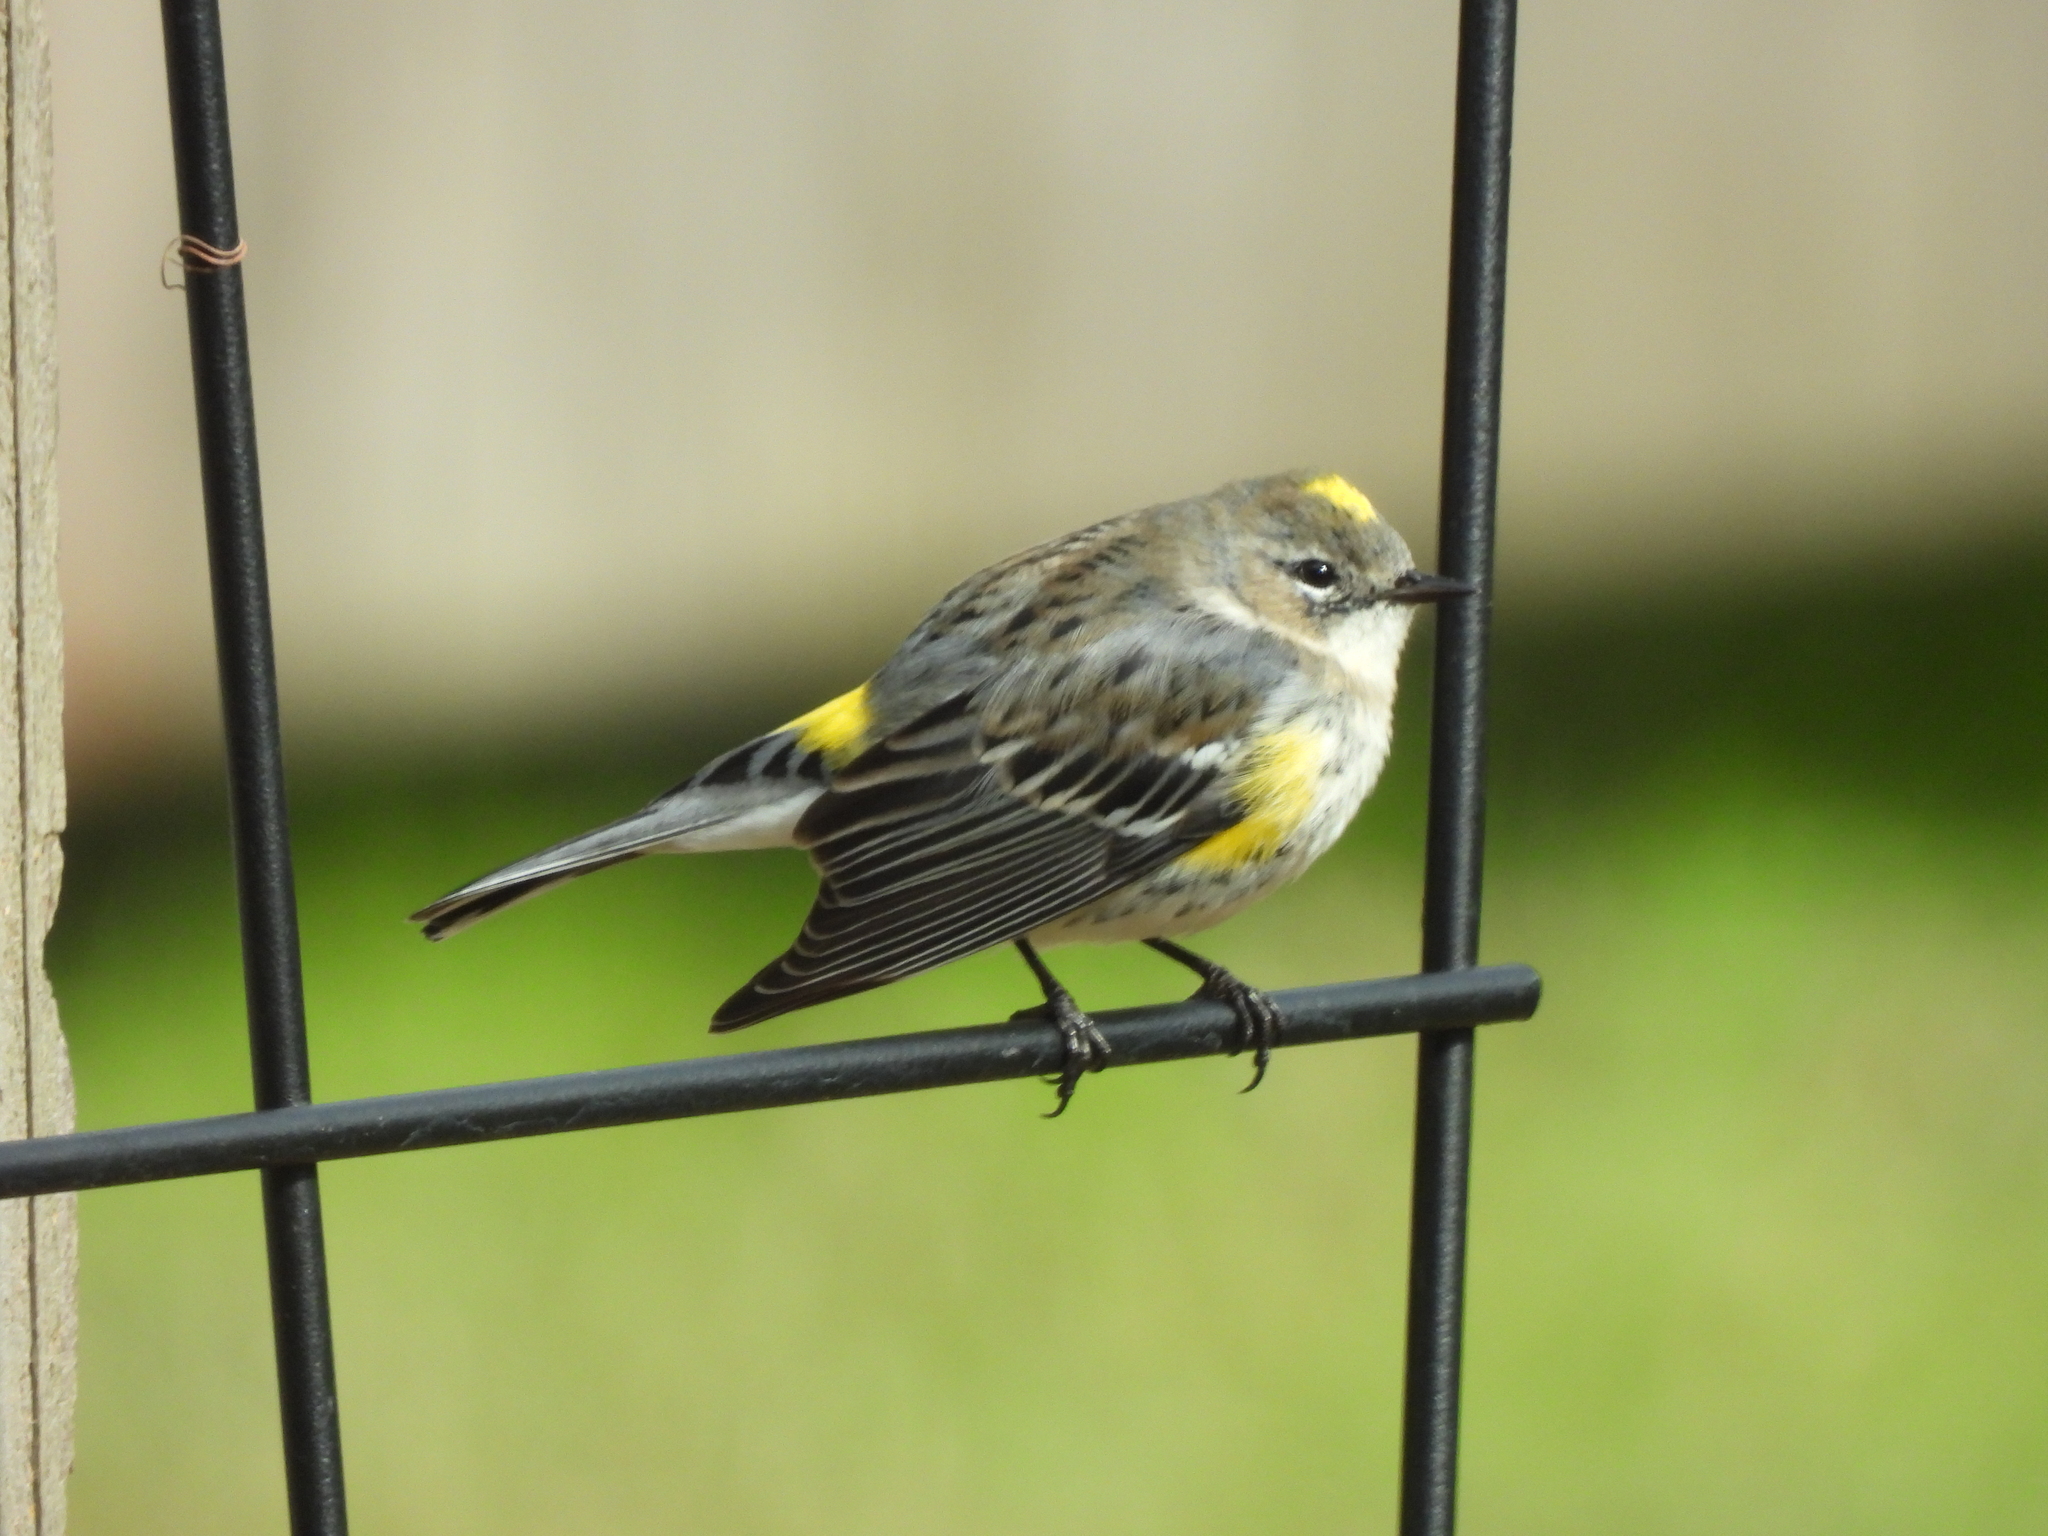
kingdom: Animalia
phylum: Chordata
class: Aves
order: Passeriformes
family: Parulidae
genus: Setophaga
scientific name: Setophaga coronata
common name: Myrtle warbler
